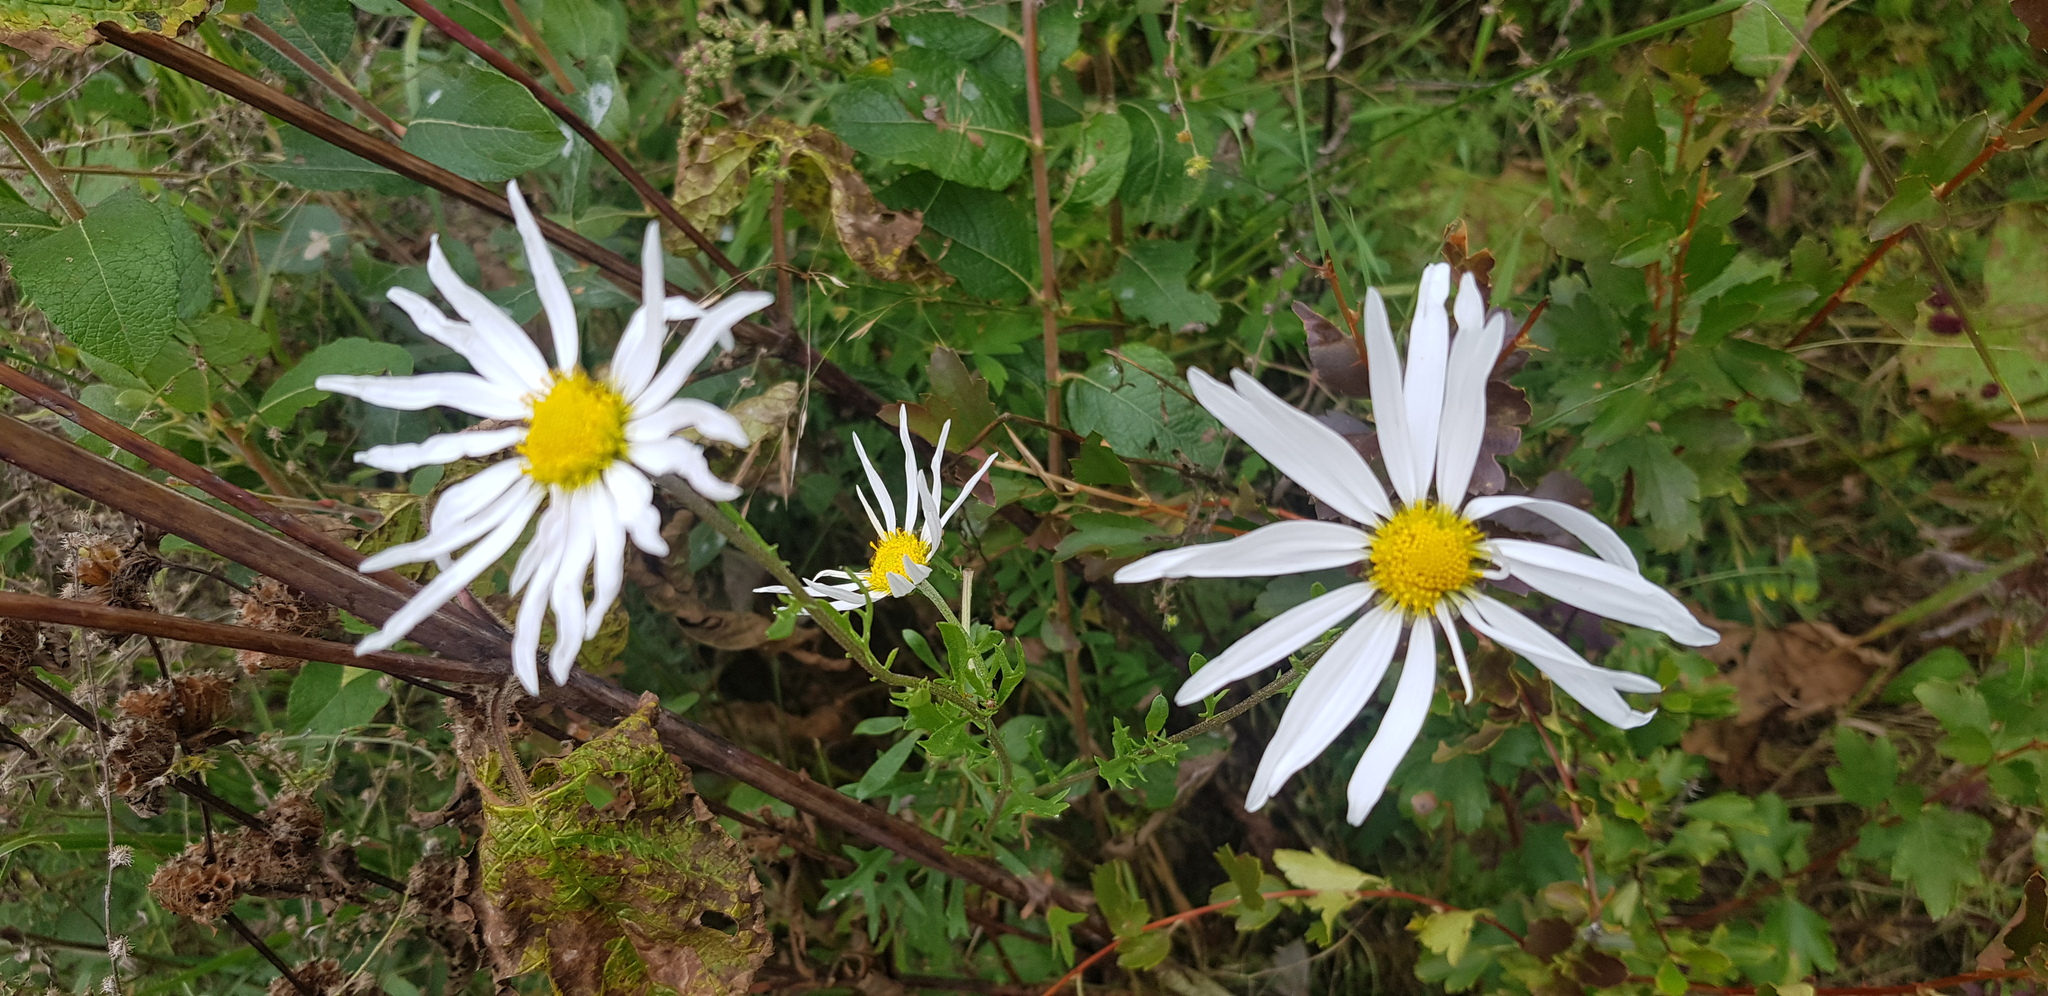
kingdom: Plantae
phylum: Tracheophyta
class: Magnoliopsida
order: Asterales
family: Asteraceae
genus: Chrysanthemum
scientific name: Chrysanthemum zawadzkii
